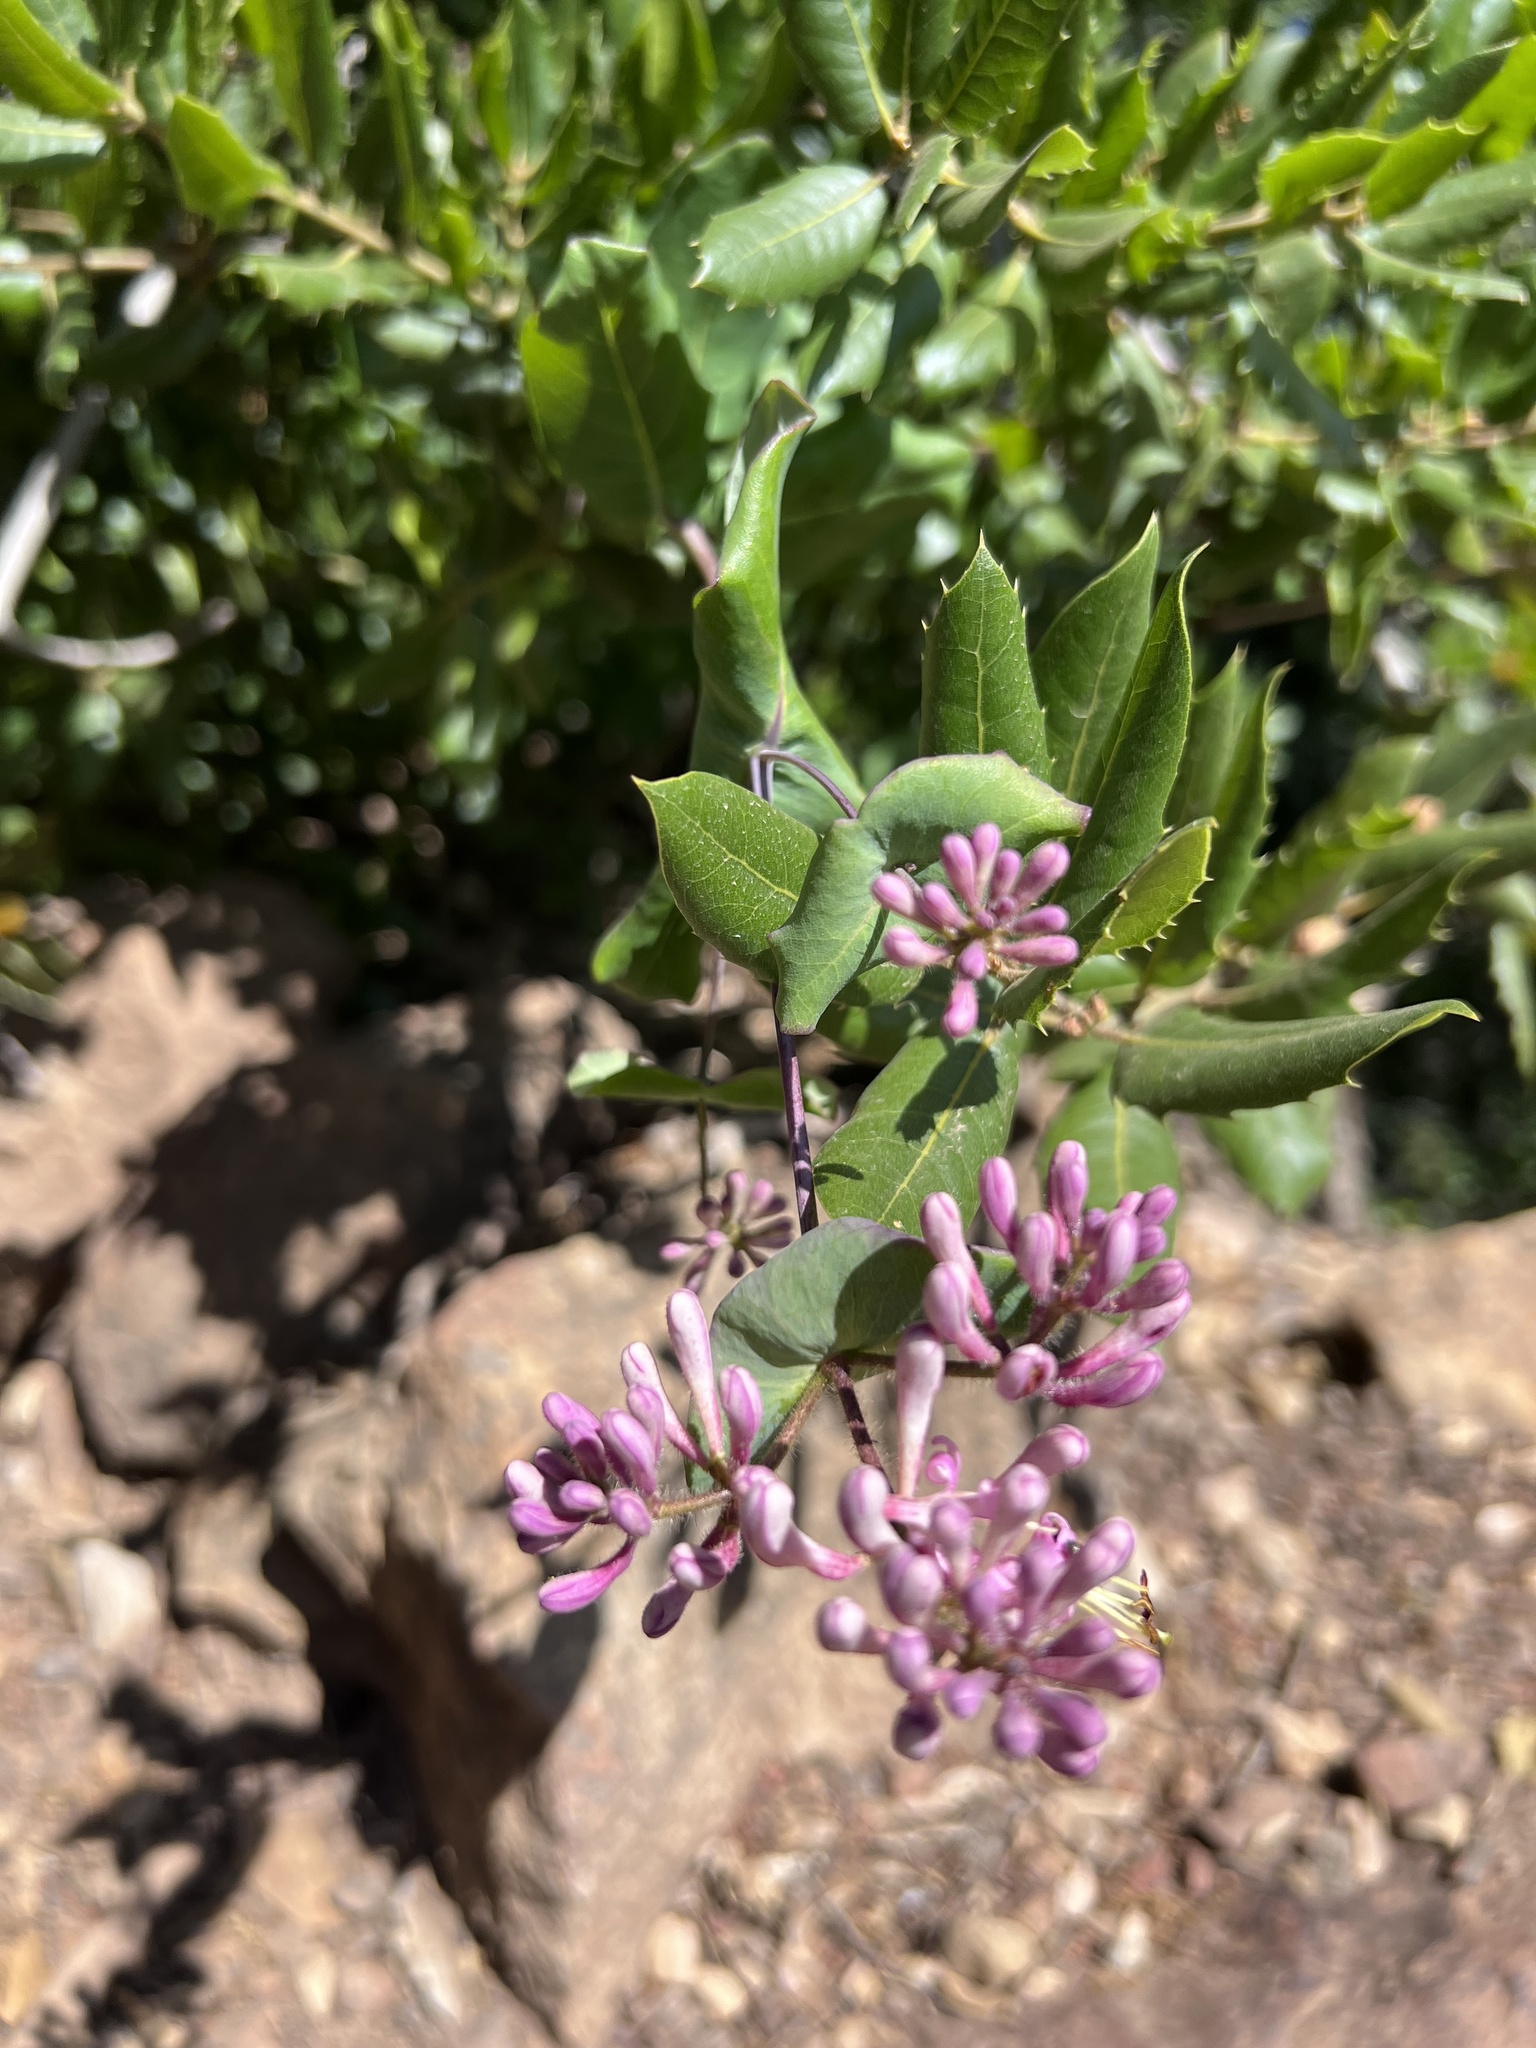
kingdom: Plantae
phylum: Tracheophyta
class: Magnoliopsida
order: Dipsacales
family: Caprifoliaceae
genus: Lonicera
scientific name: Lonicera hispidula
